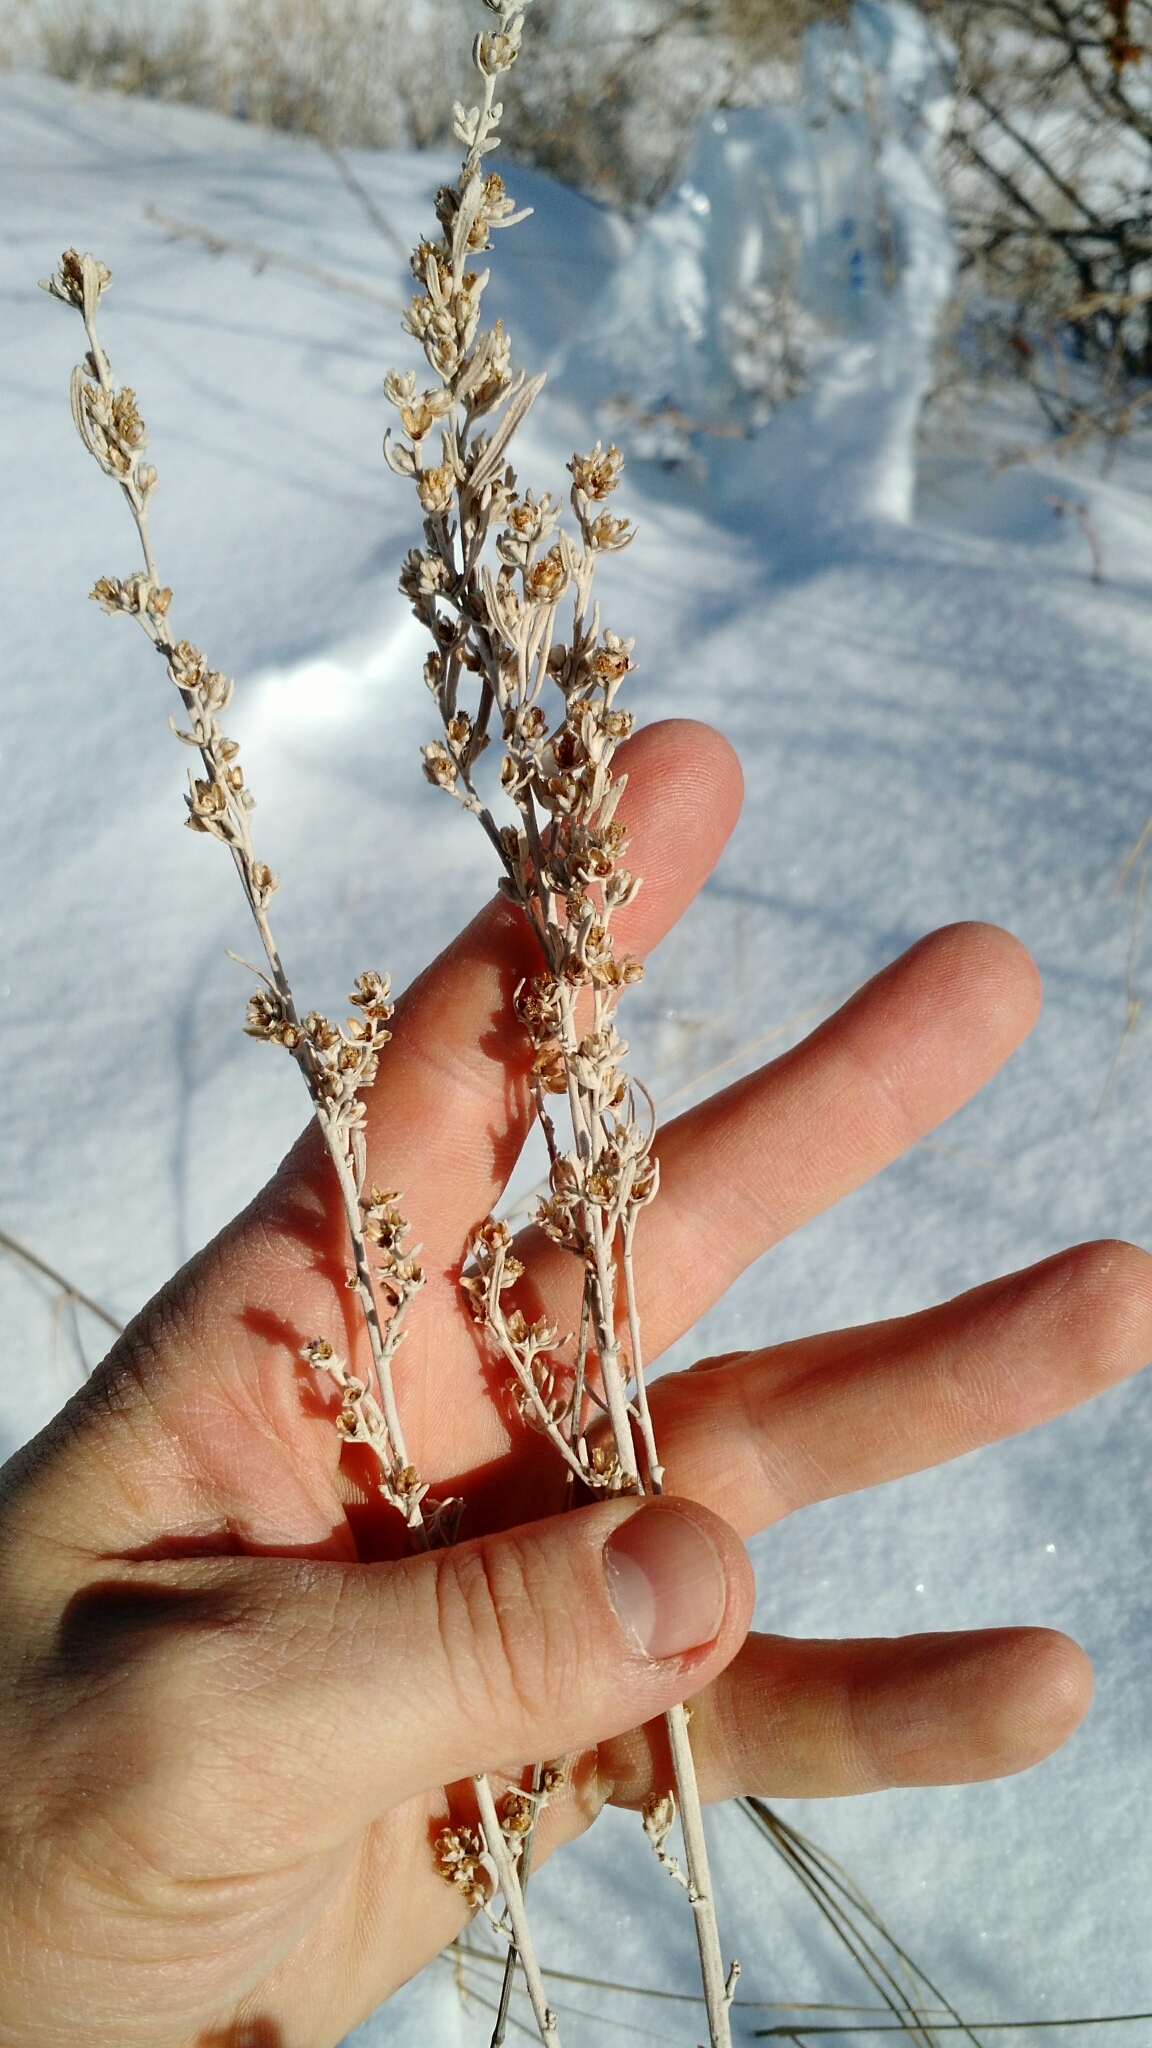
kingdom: Plantae
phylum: Tracheophyta
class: Magnoliopsida
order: Asterales
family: Asteraceae
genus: Artemisia
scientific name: Artemisia cana
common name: Silver sagebrush
